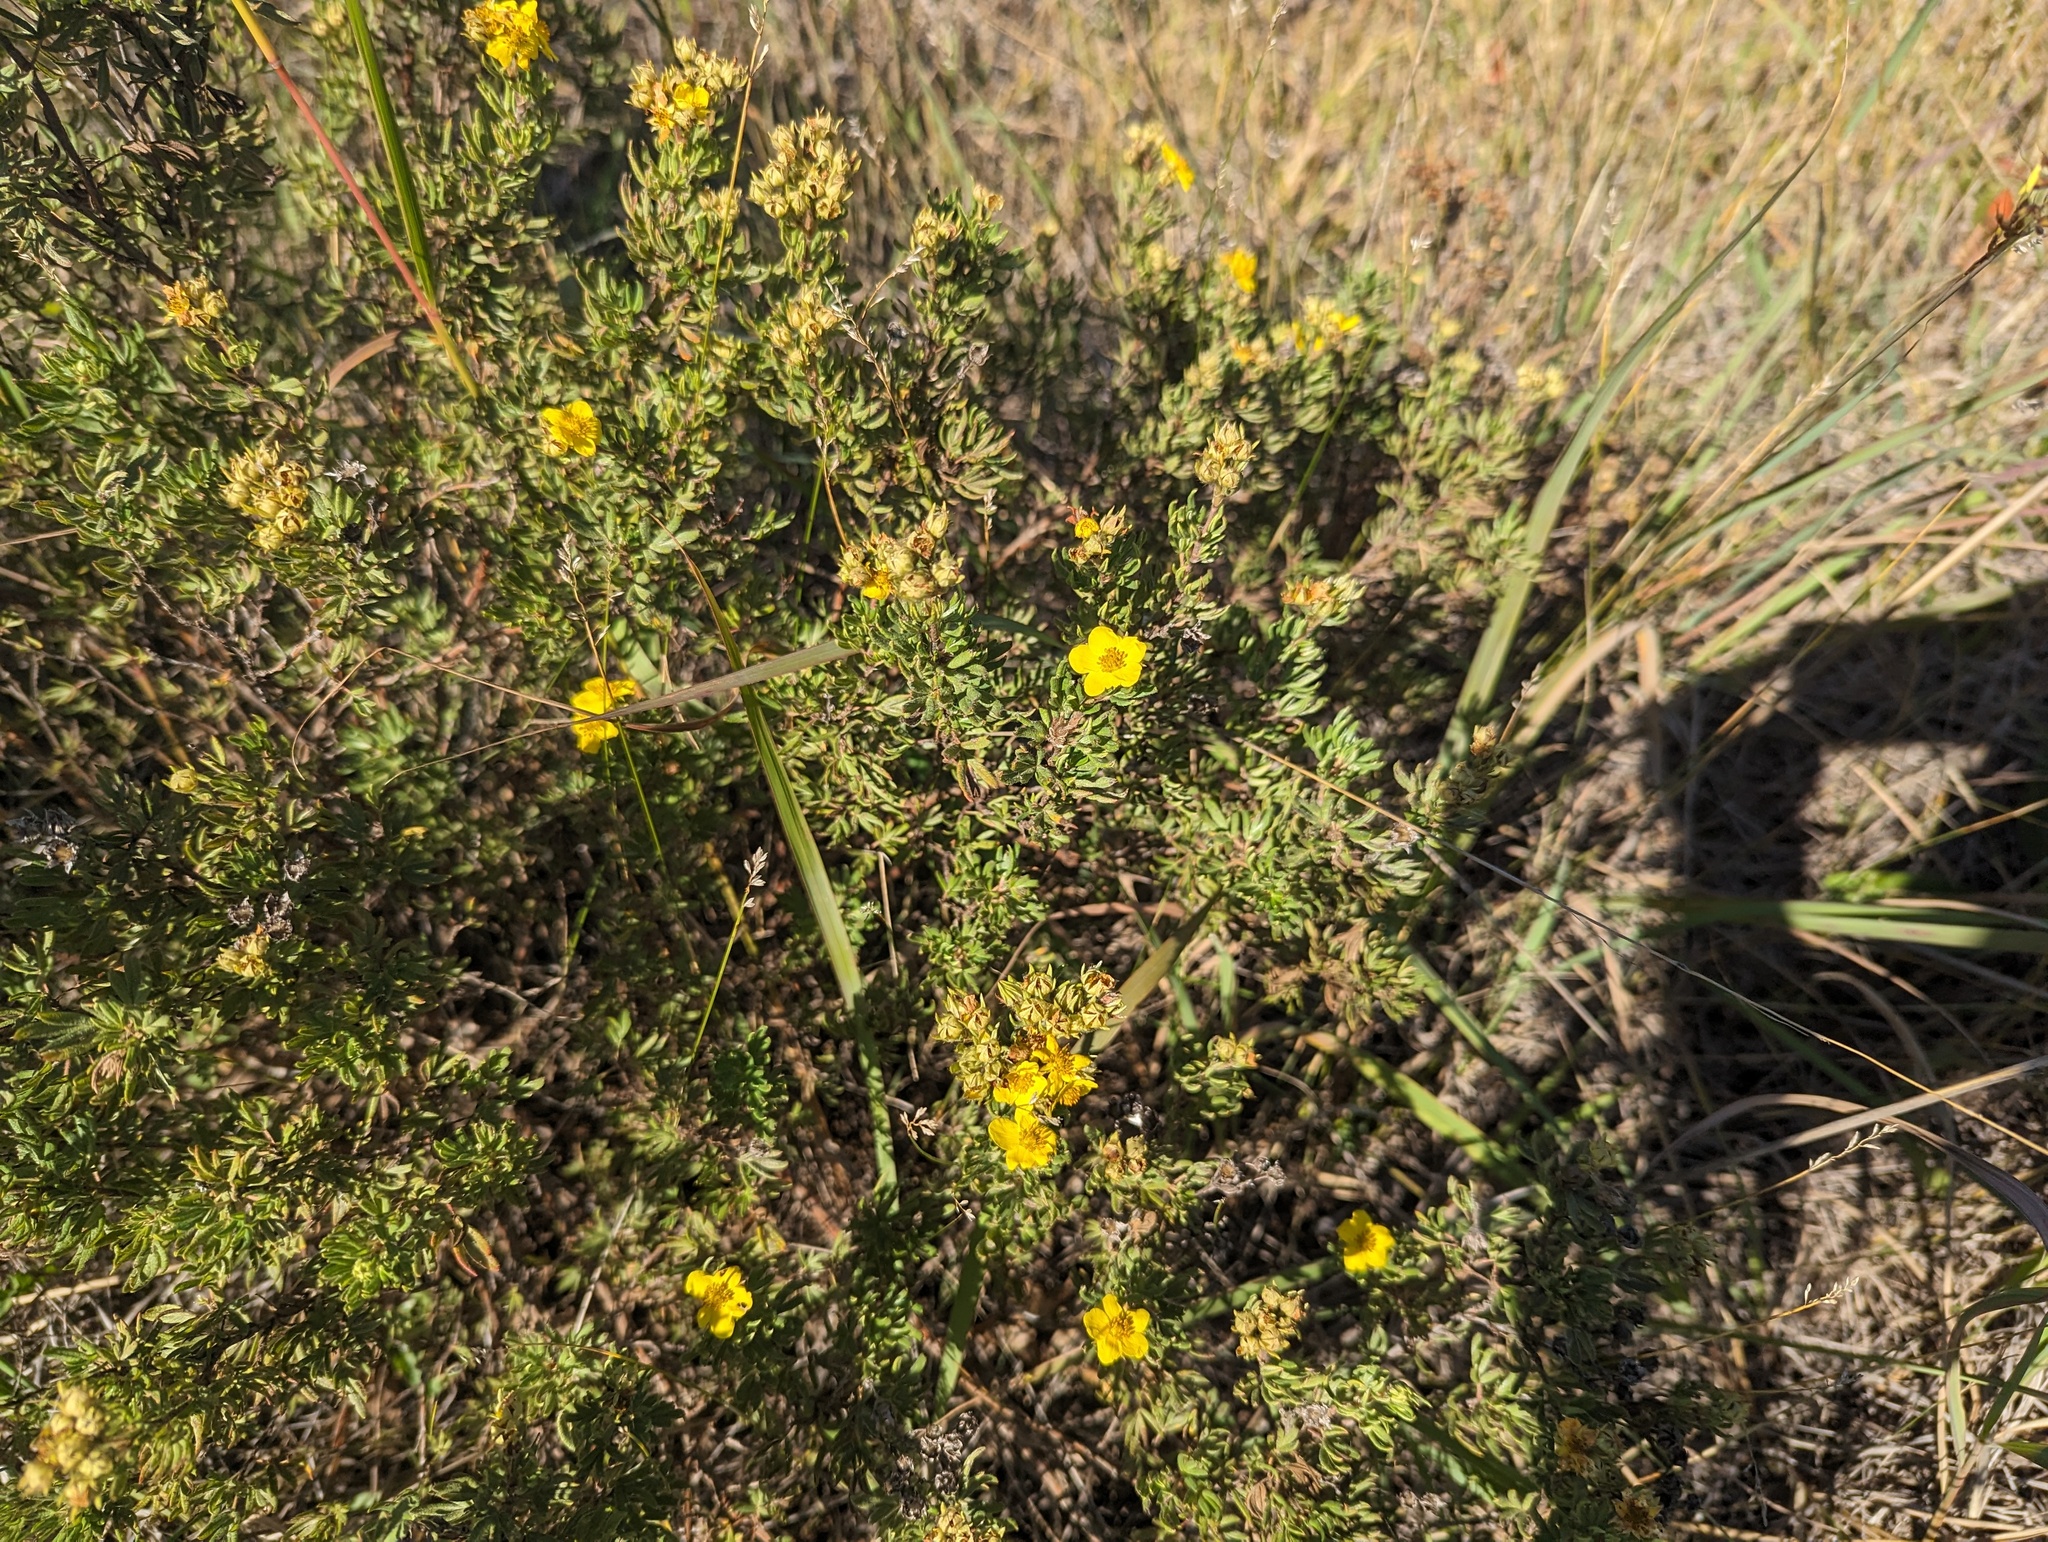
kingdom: Plantae
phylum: Tracheophyta
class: Magnoliopsida
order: Rosales
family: Rosaceae
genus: Dasiphora
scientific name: Dasiphora fruticosa
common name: Shrubby cinquefoil
